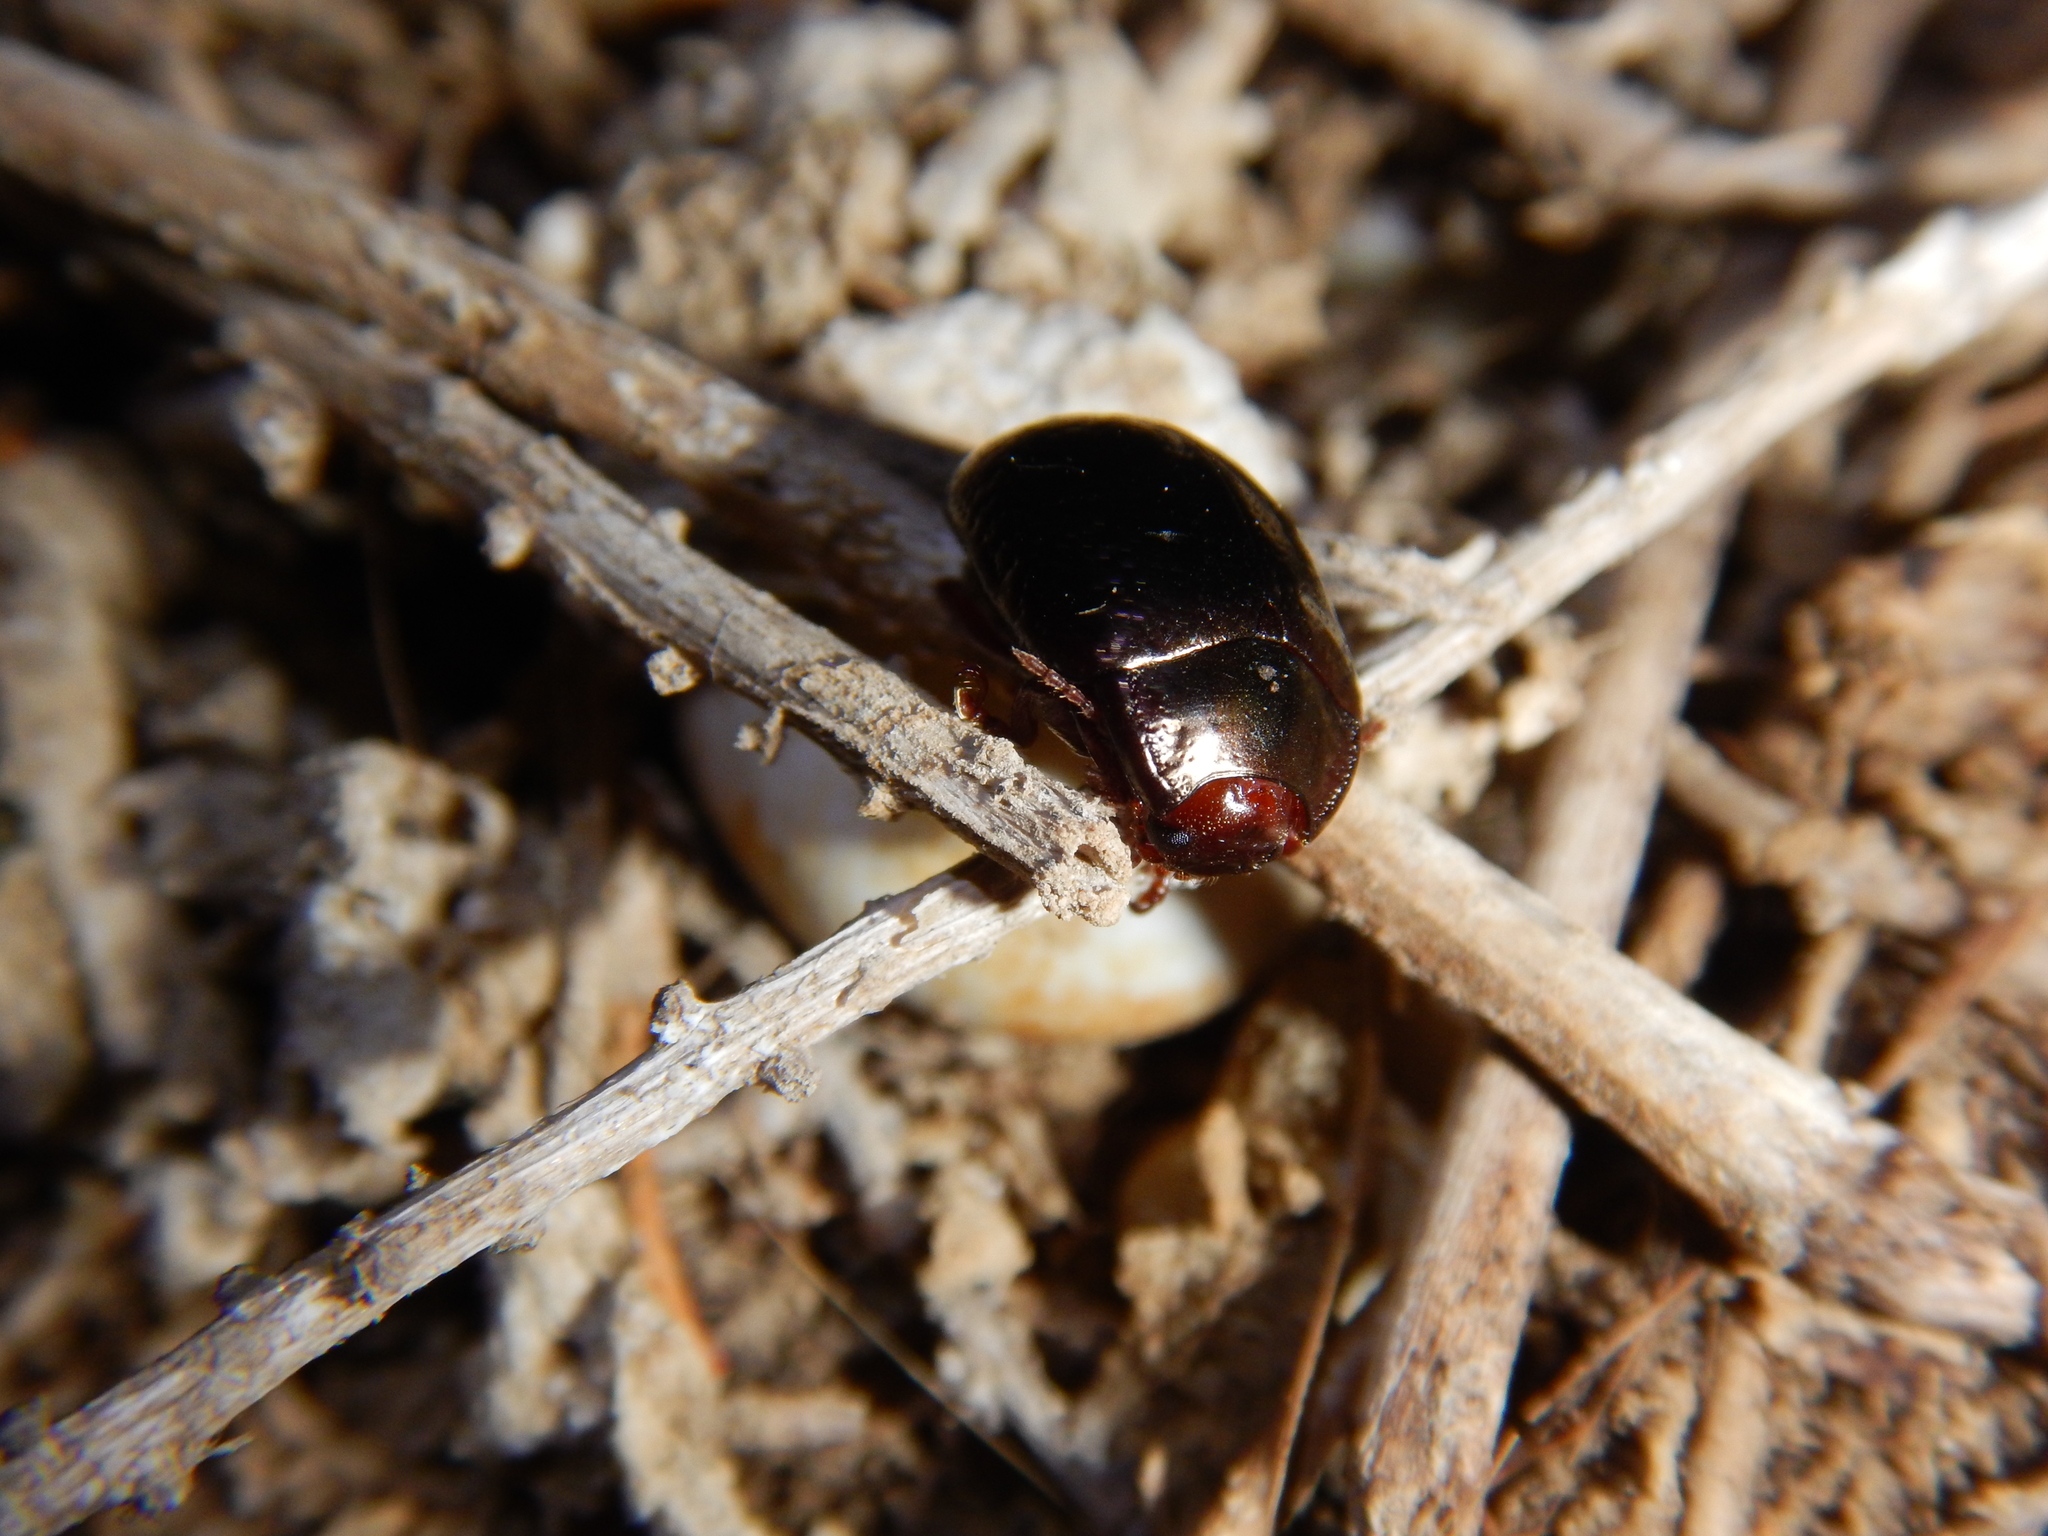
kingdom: Animalia
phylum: Arthropoda
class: Insecta
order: Coleoptera
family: Chrysomelidae
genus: Chrysolina
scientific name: Chrysolina bankii
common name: Leaf beetle
